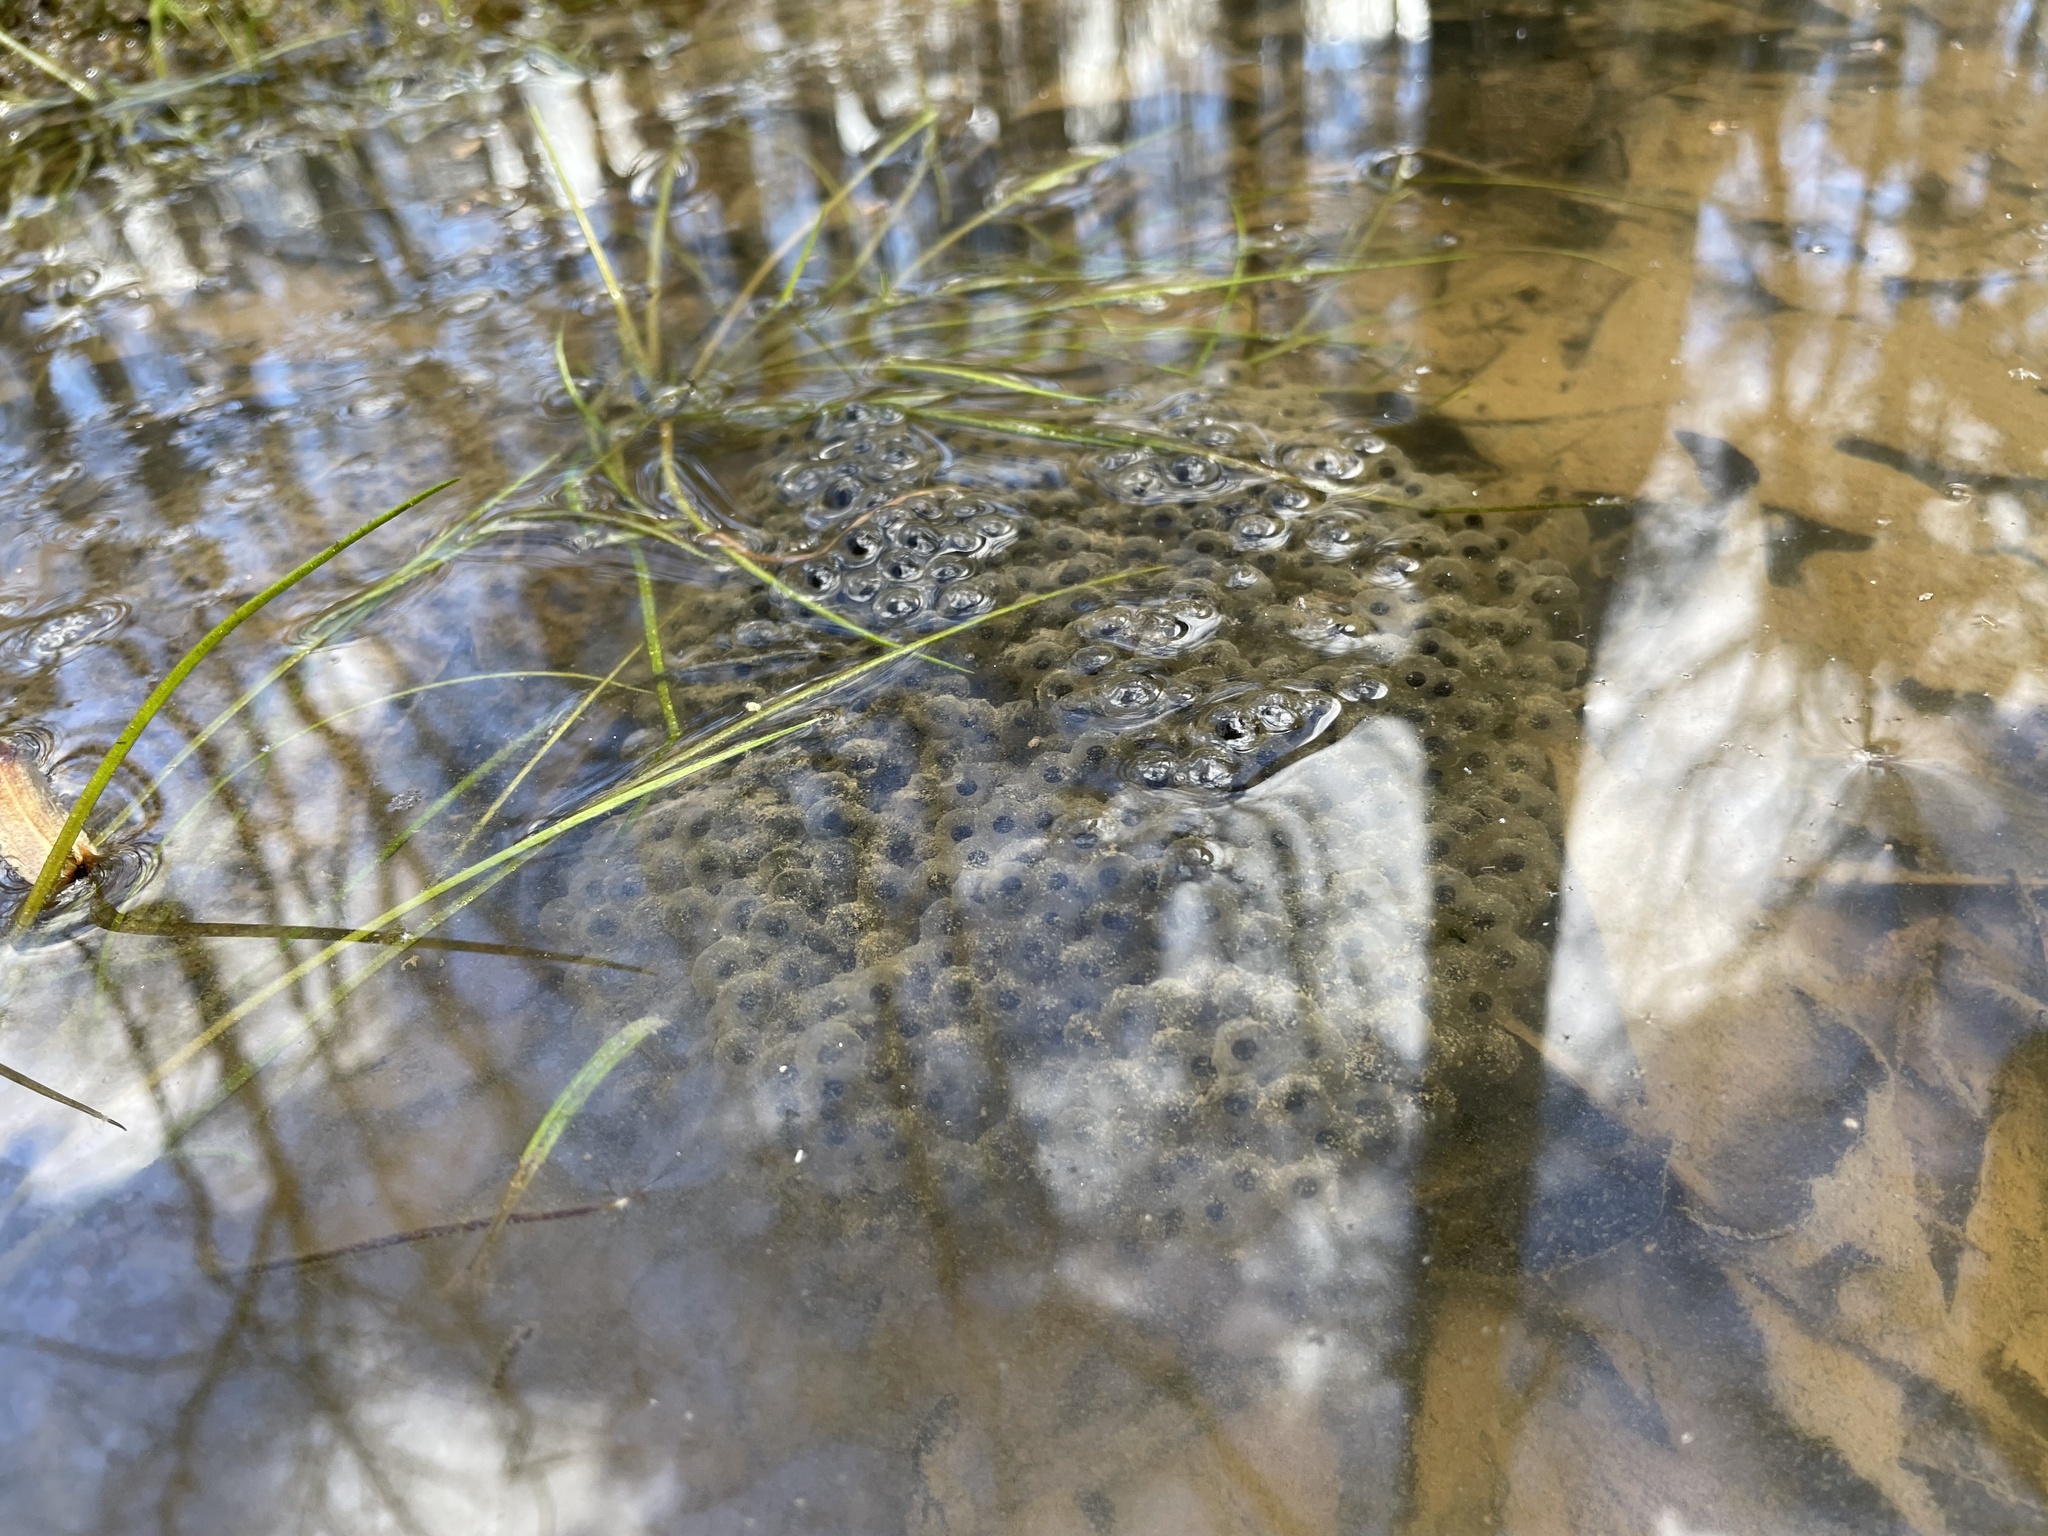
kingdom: Animalia
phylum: Chordata
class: Amphibia
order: Anura
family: Ranidae
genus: Lithobates
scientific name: Lithobates sphenocephalus
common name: Southern leopard frog
